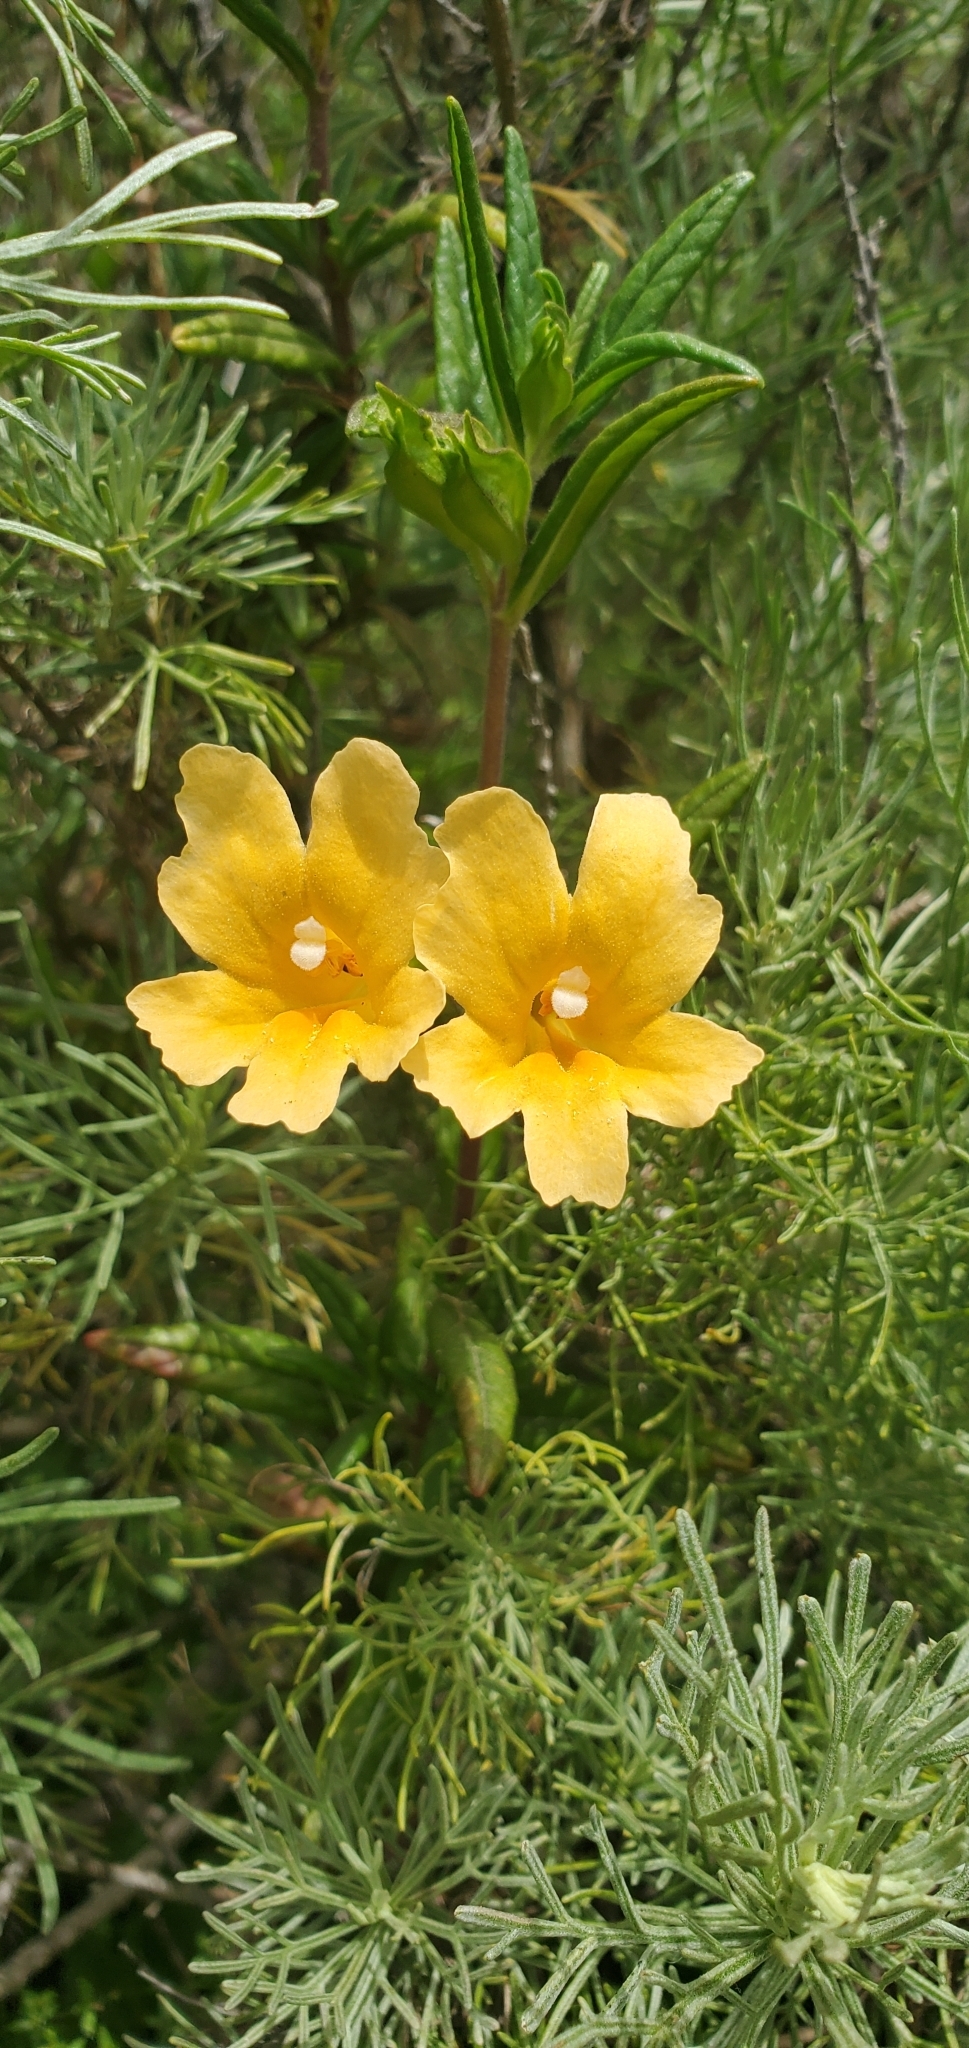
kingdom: Plantae
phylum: Tracheophyta
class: Magnoliopsida
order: Lamiales
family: Phrymaceae
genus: Diplacus
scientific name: Diplacus aurantiacus
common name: Bush monkey-flower
